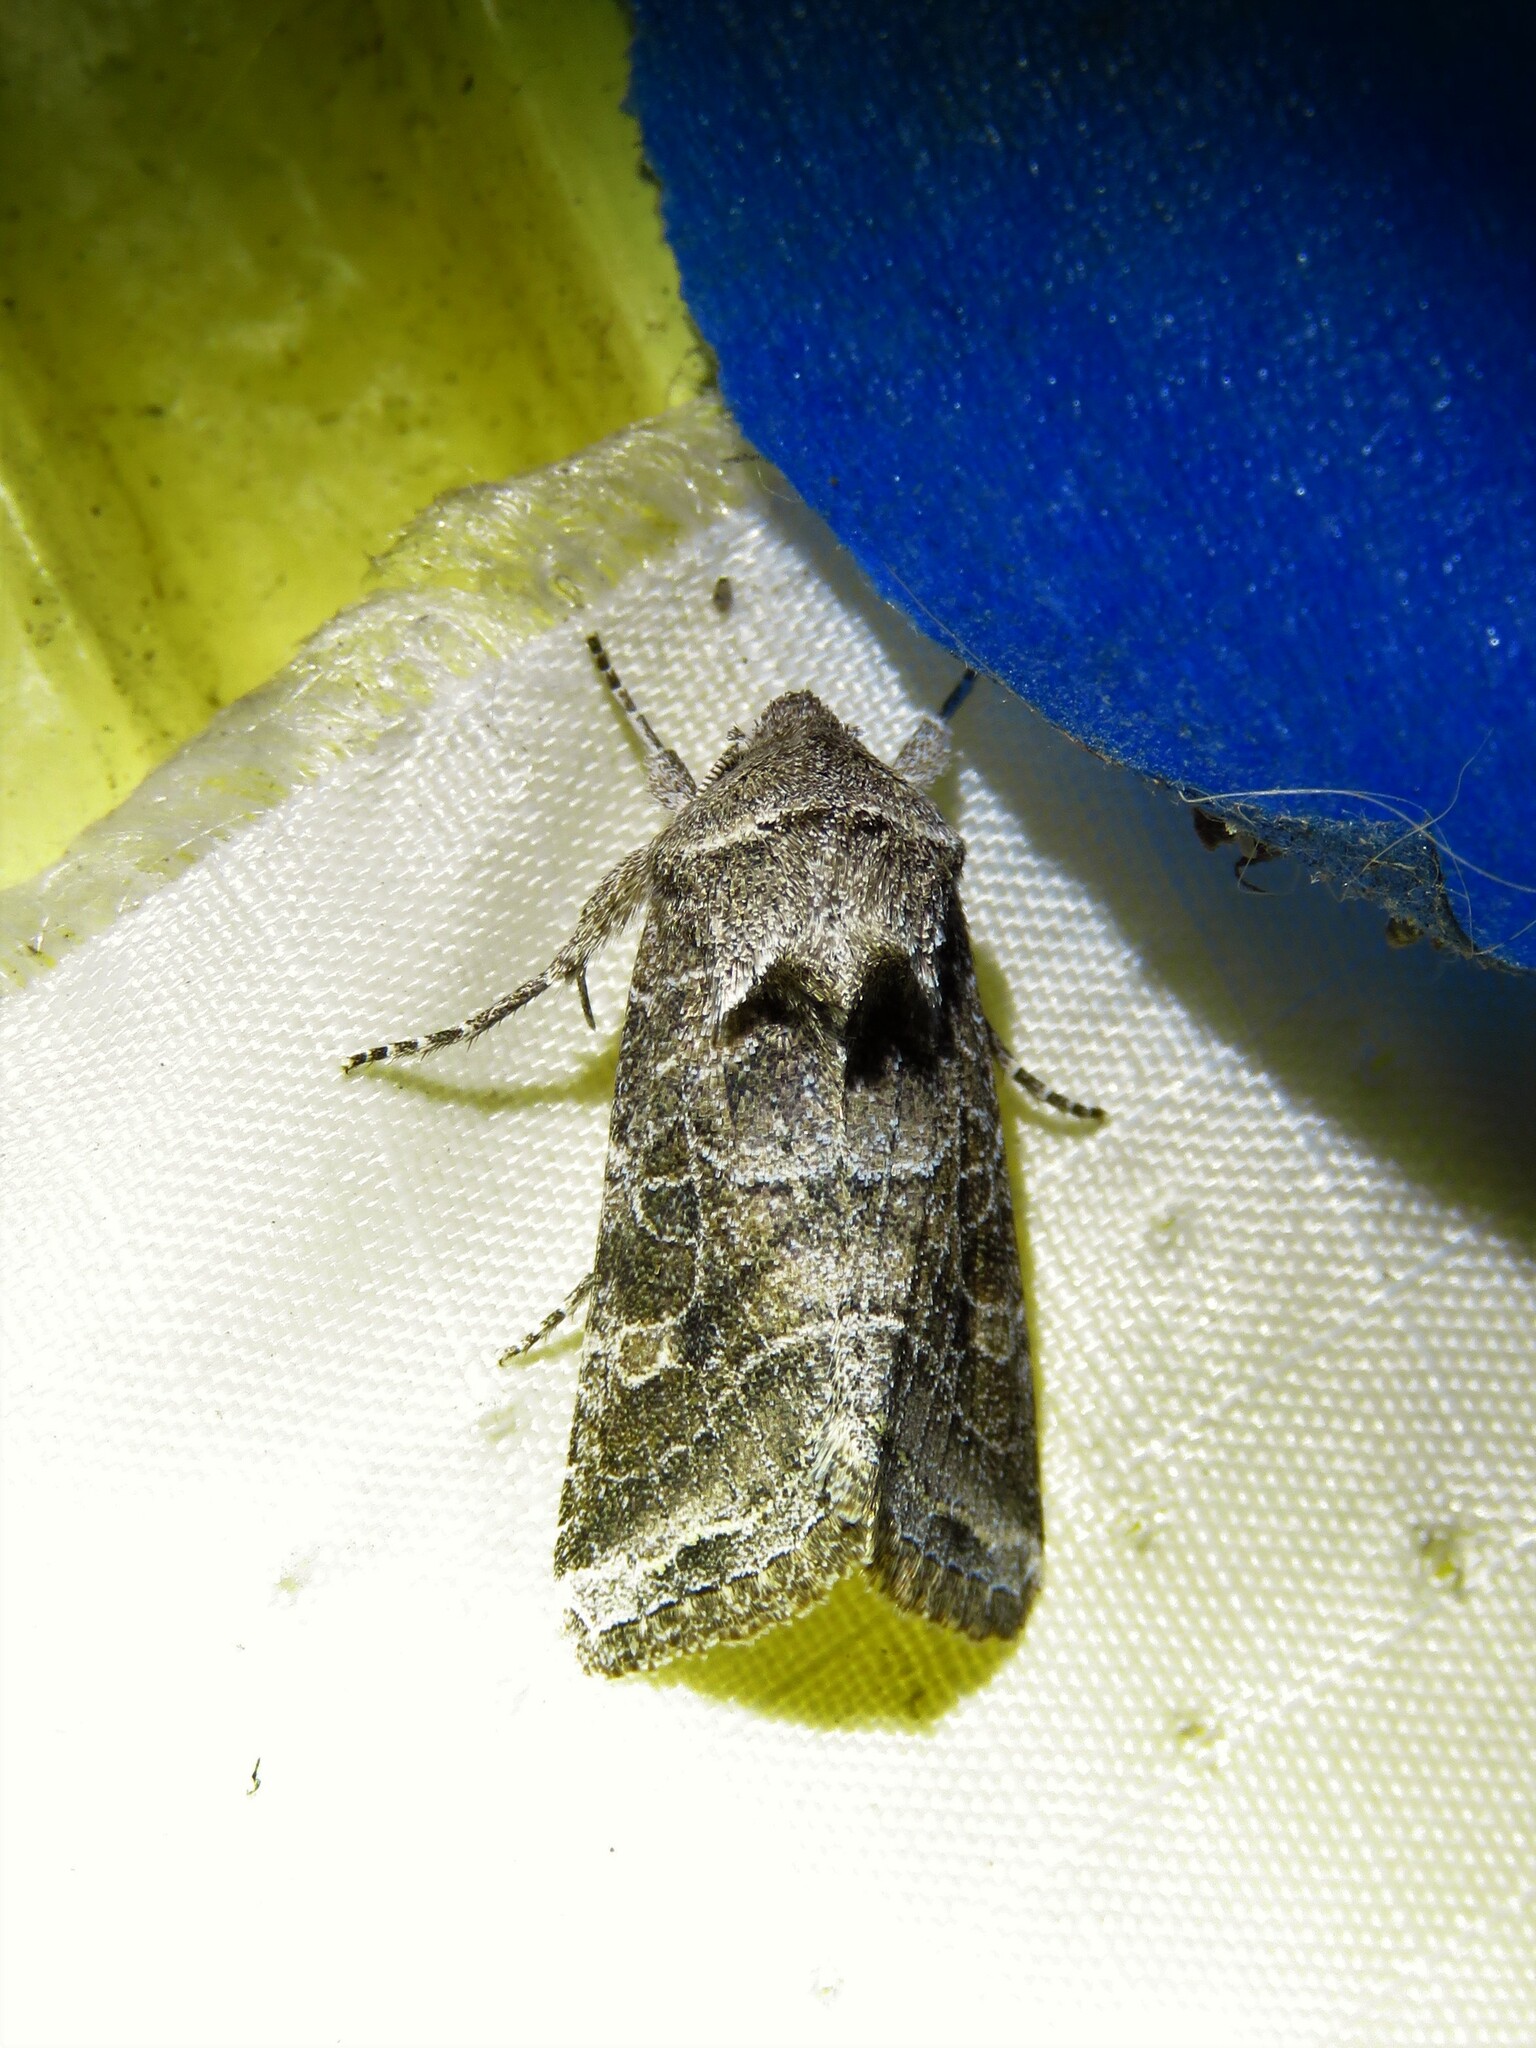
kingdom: Animalia
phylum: Arthropoda
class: Insecta
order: Lepidoptera
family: Noctuidae
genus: Lacinipolia
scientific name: Lacinipolia erecta
